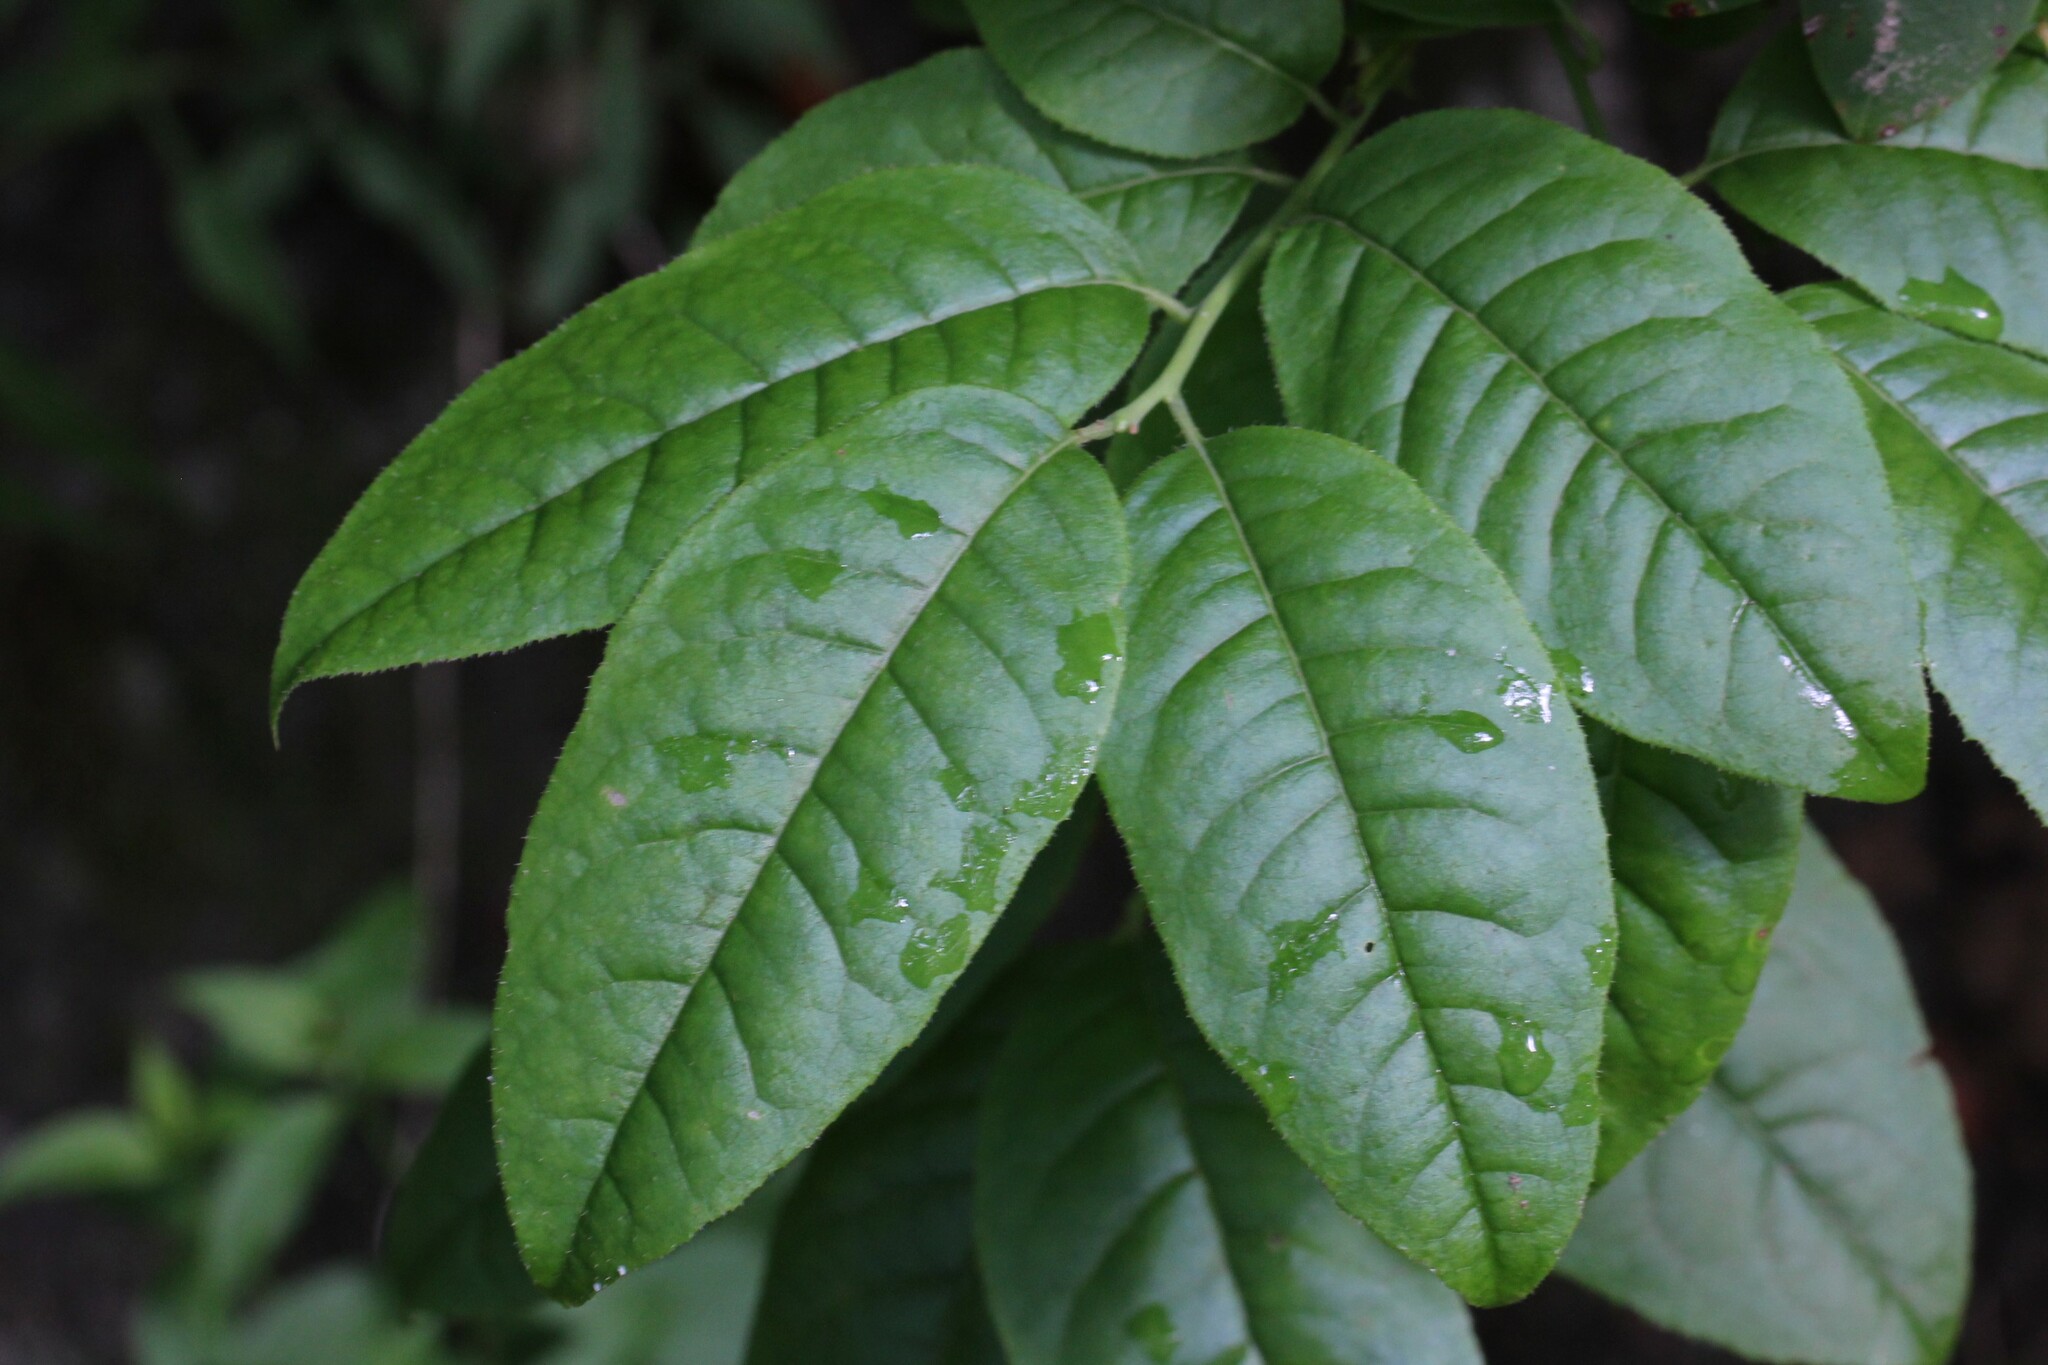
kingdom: Plantae
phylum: Tracheophyta
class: Magnoliopsida
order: Ericales
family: Ericaceae
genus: Oxydendrum
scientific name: Oxydendrum arboreum
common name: Sourwood
